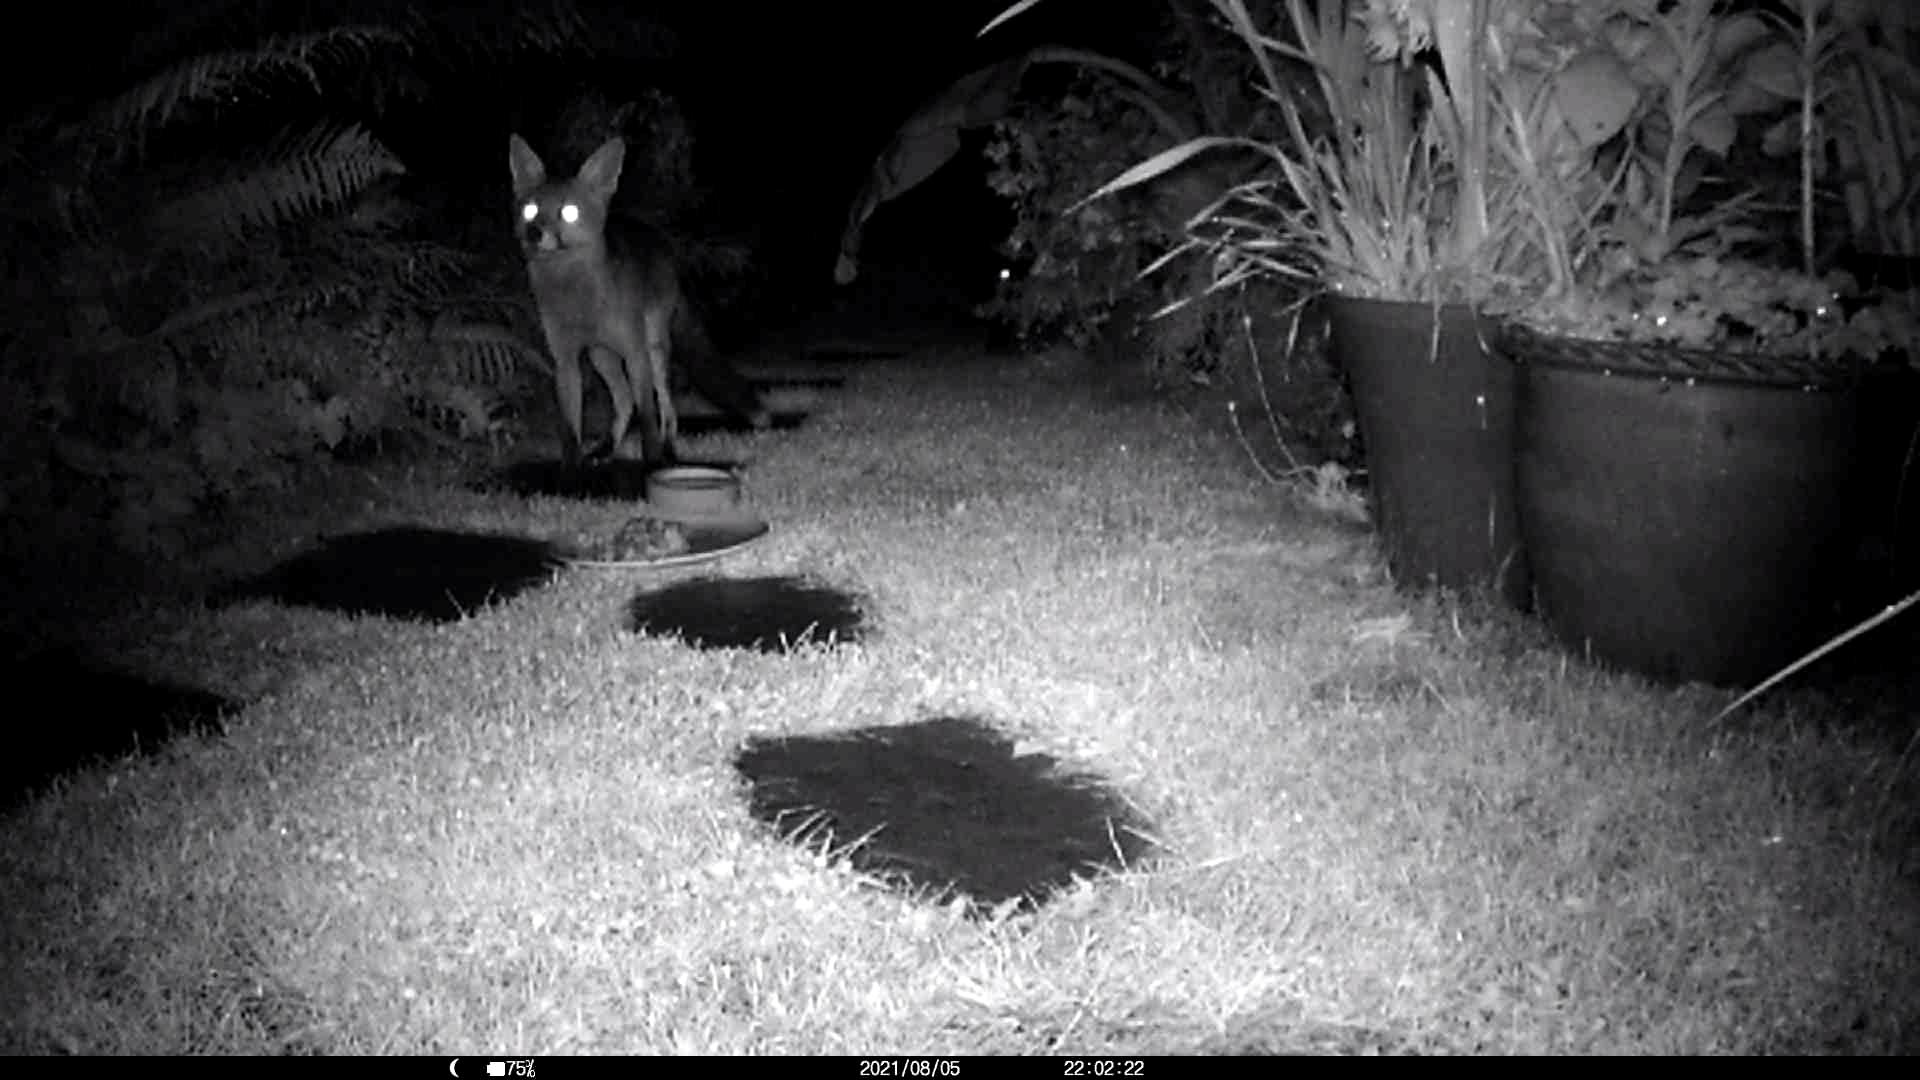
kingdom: Animalia
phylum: Chordata
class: Mammalia
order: Carnivora
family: Canidae
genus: Vulpes
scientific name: Vulpes vulpes
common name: Red fox
